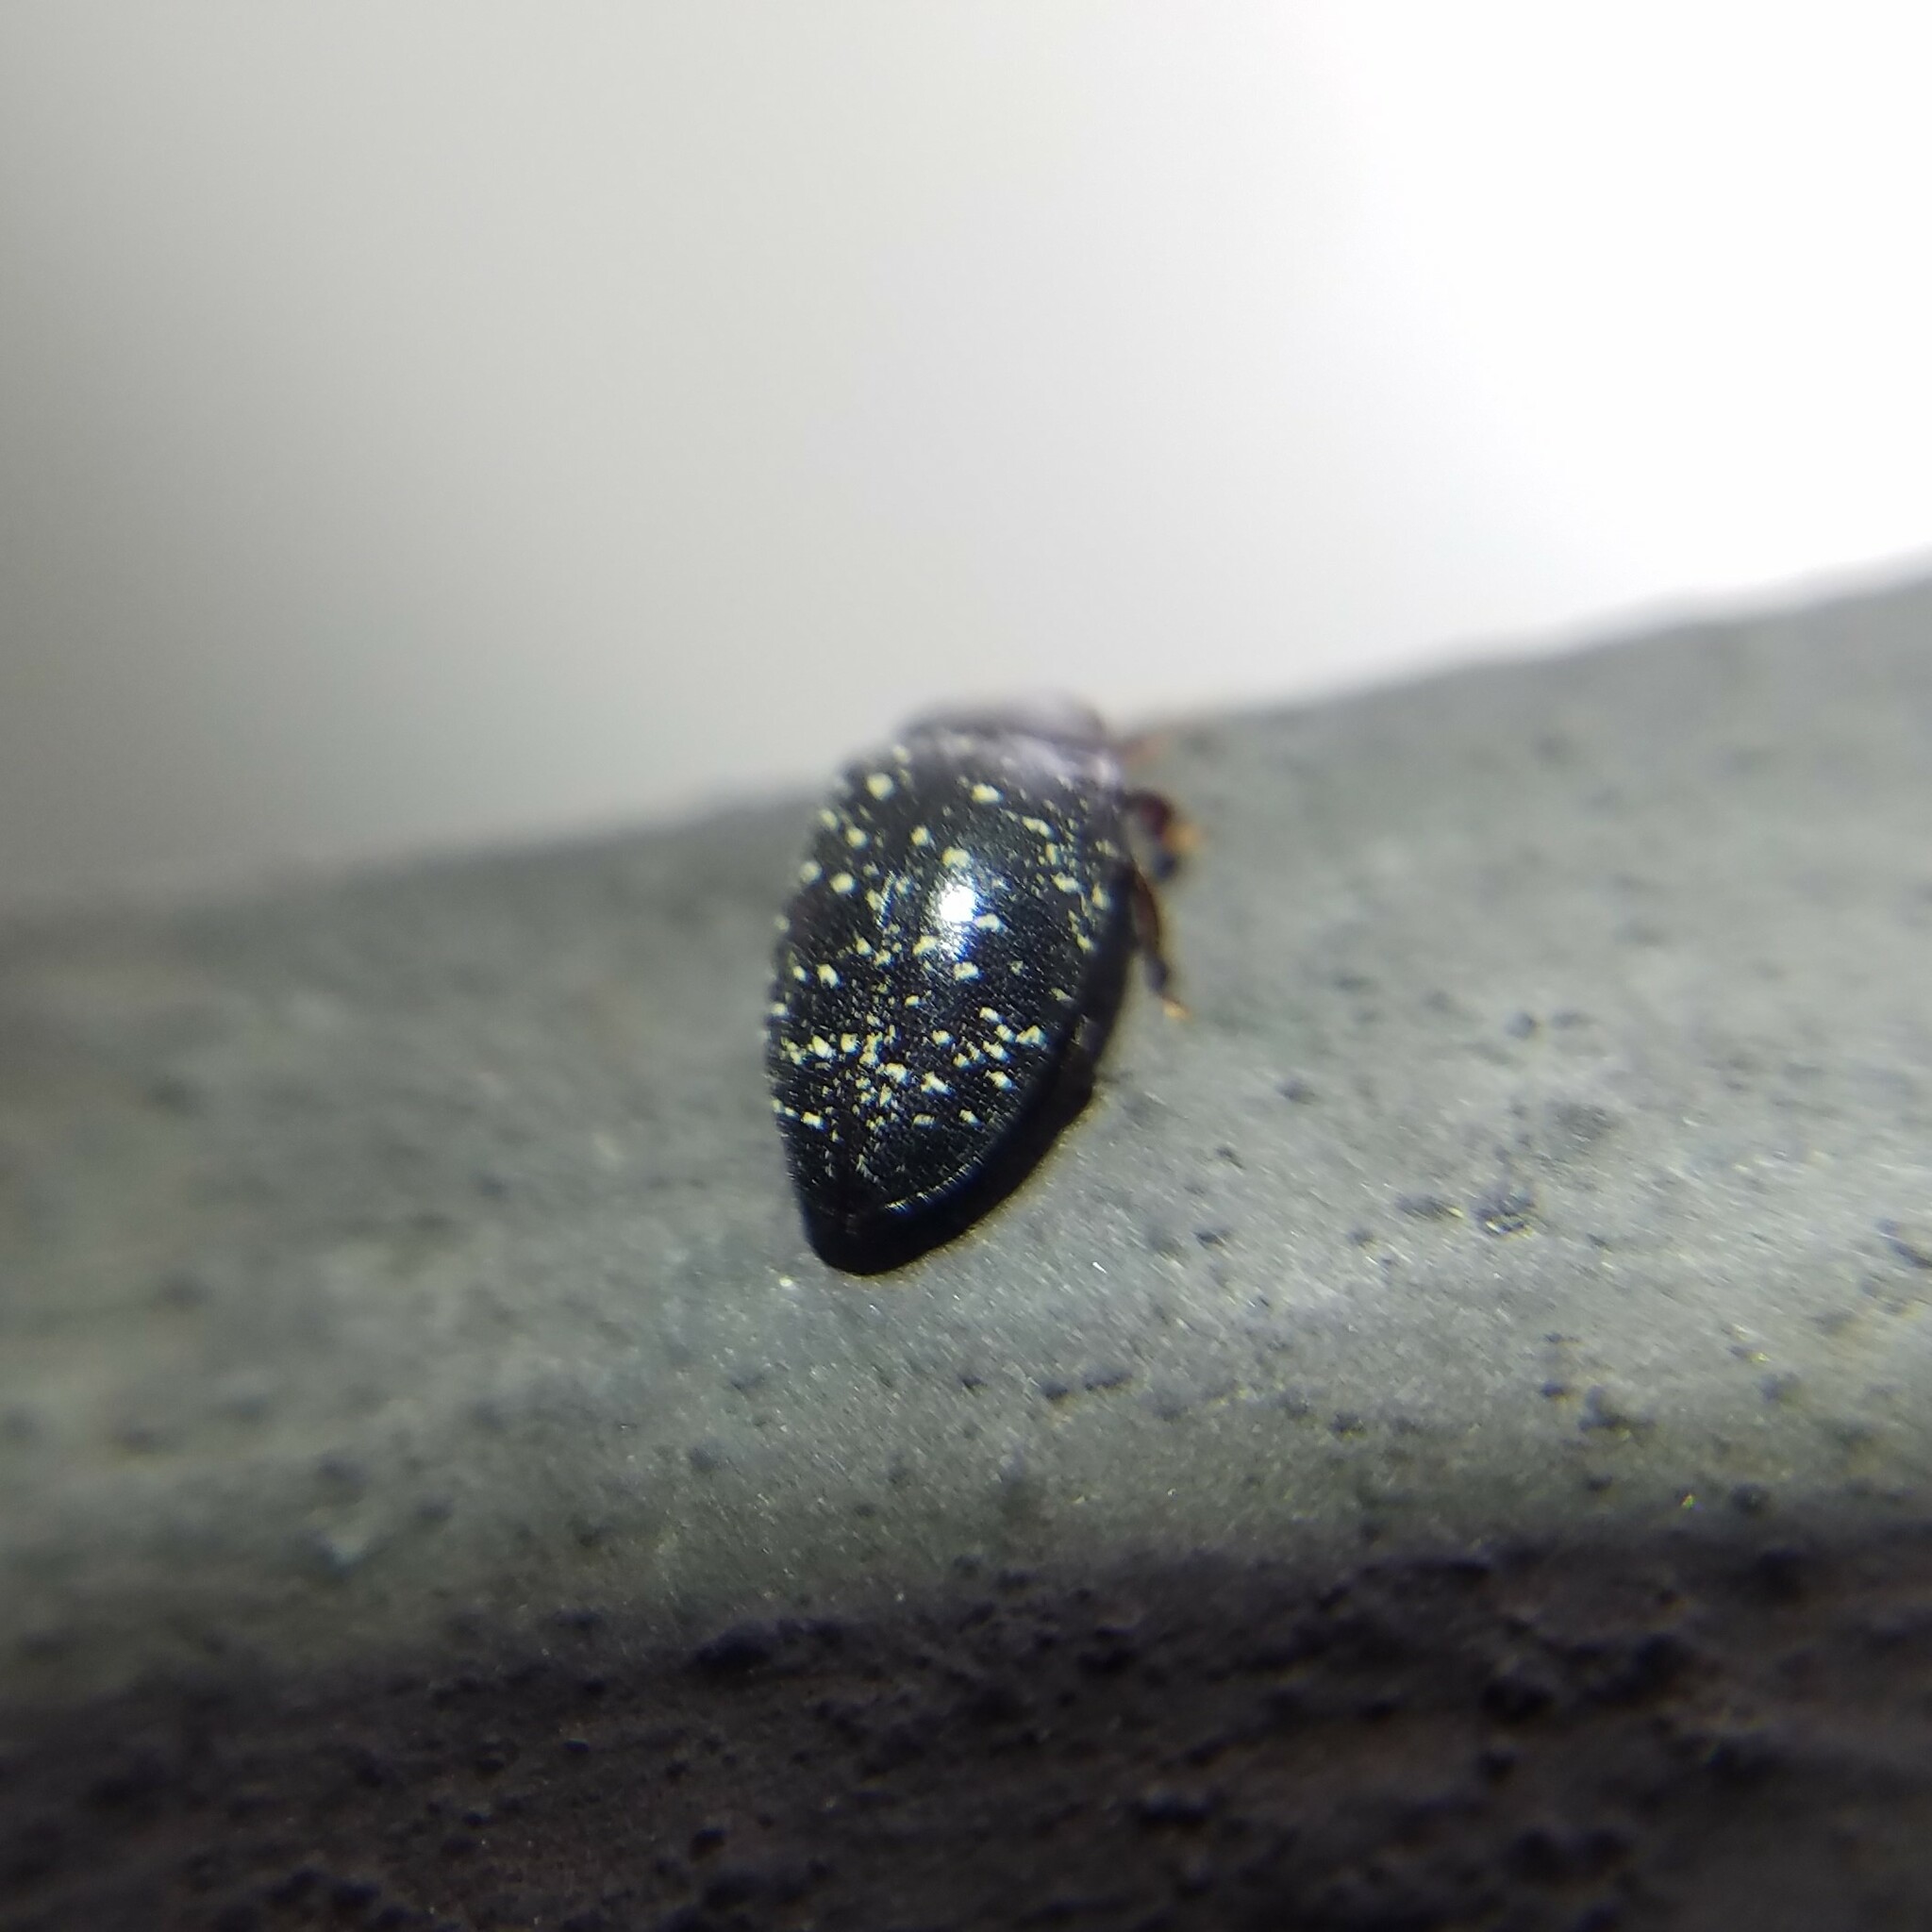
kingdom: Animalia
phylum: Arthropoda
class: Insecta
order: Coleoptera
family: Chelonariidae
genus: Chelonarium
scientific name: Chelonarium lecontei
